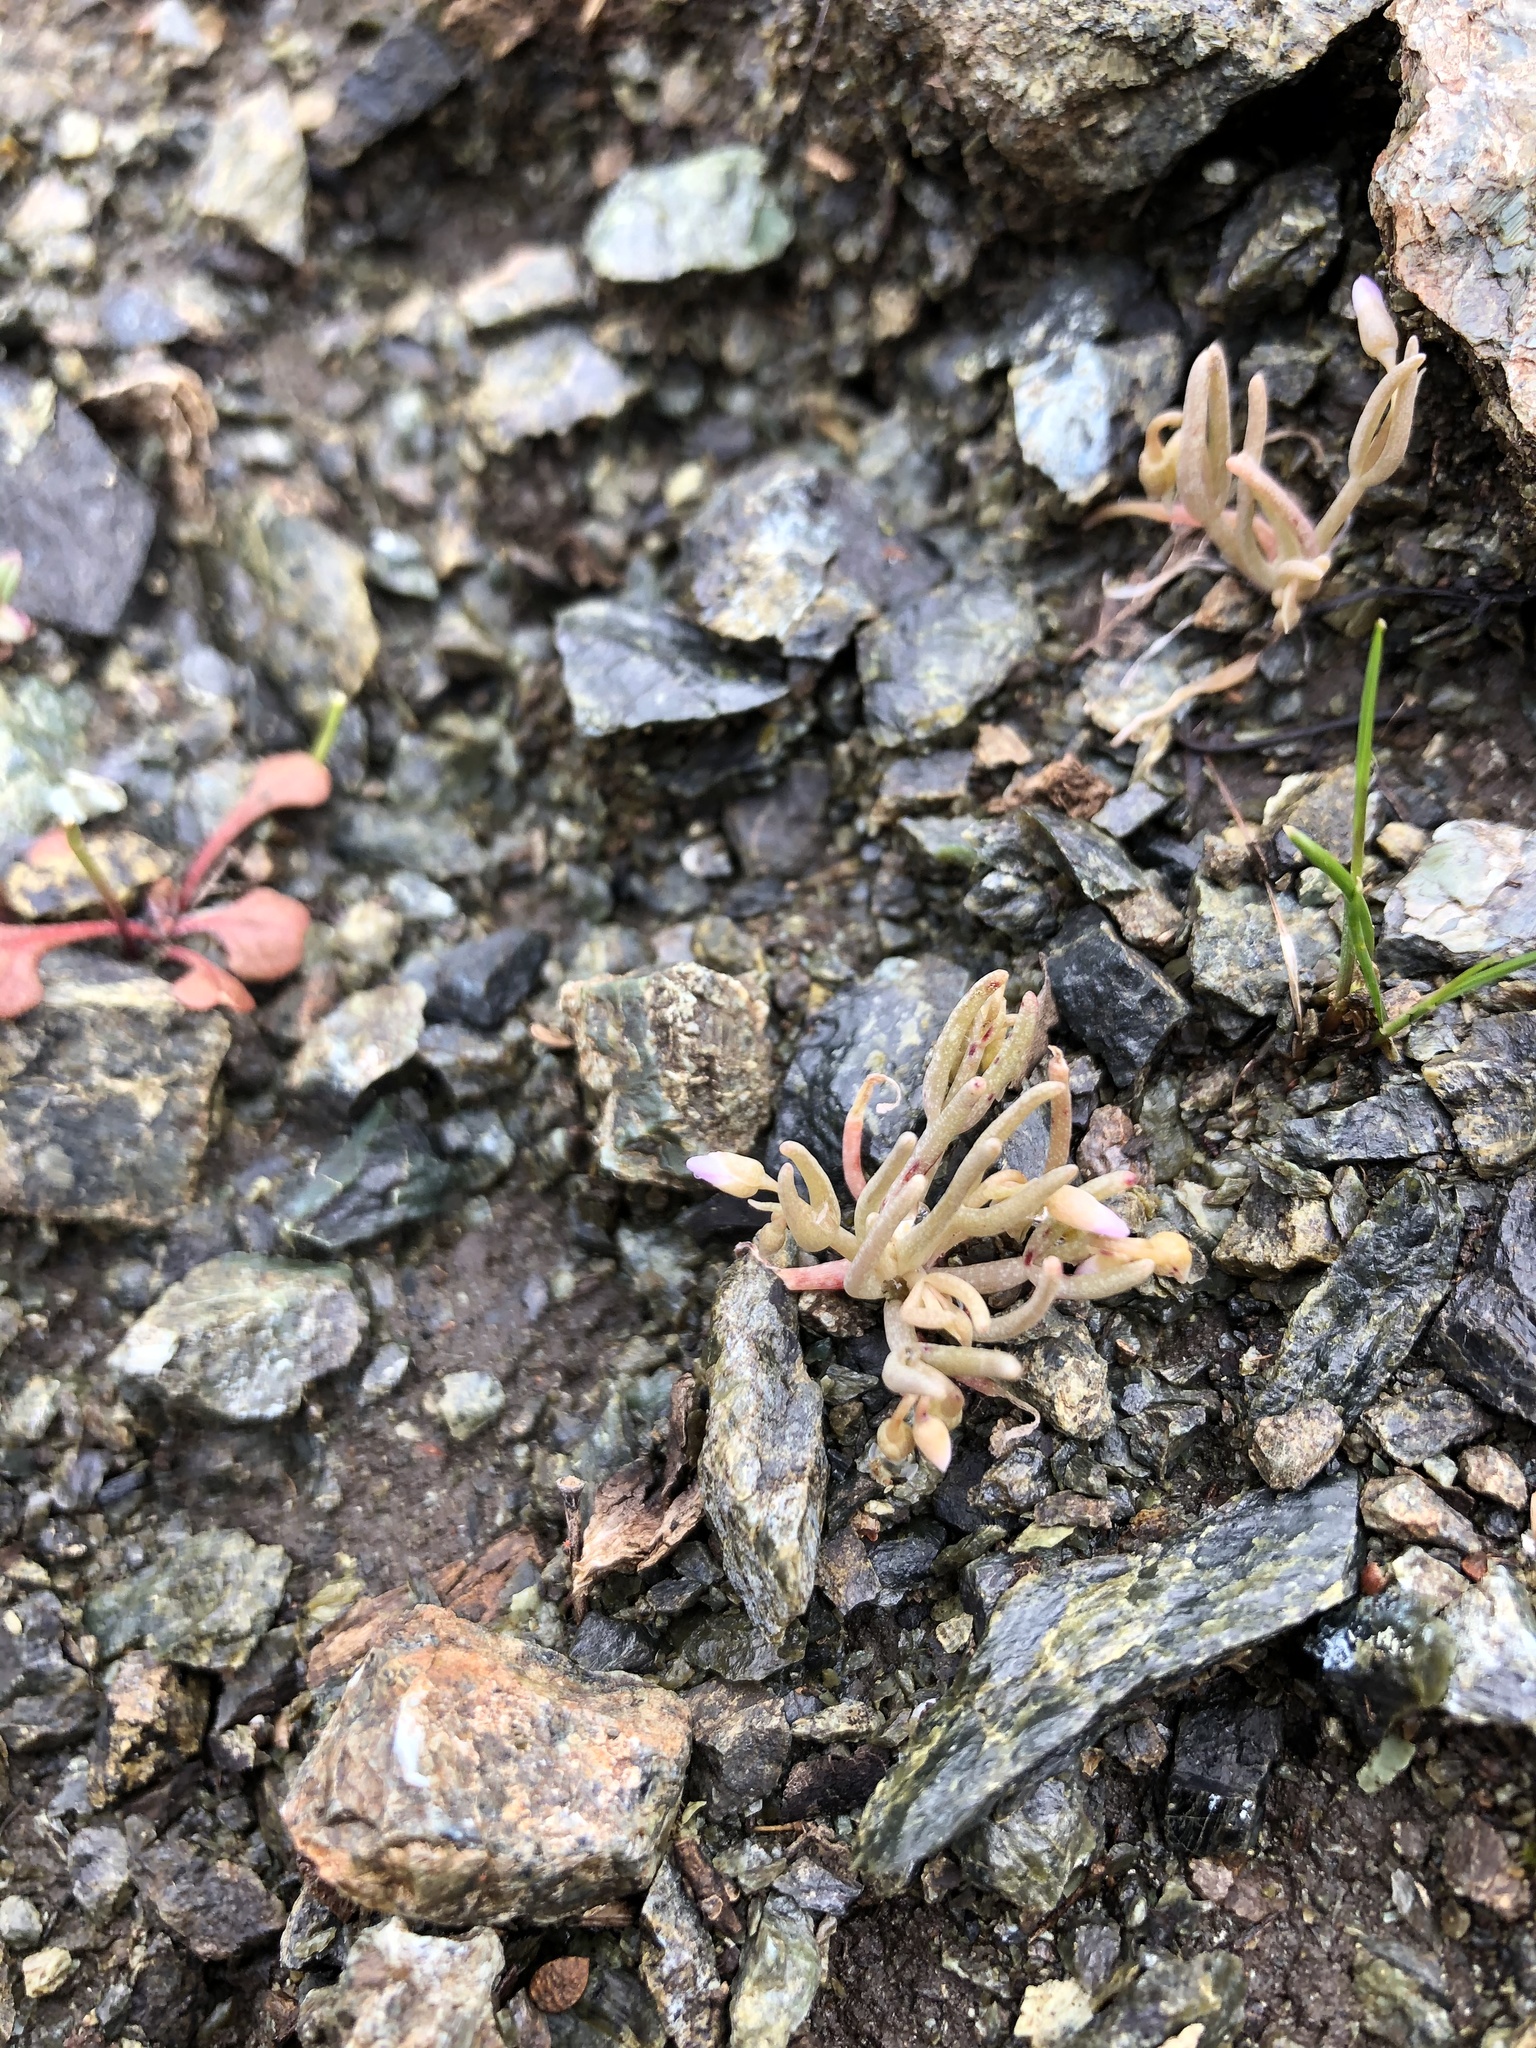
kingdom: Plantae
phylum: Tracheophyta
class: Magnoliopsida
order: Caryophyllales
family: Montiaceae
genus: Claytonia
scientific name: Claytonia exigua
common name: Pale spring beauty
